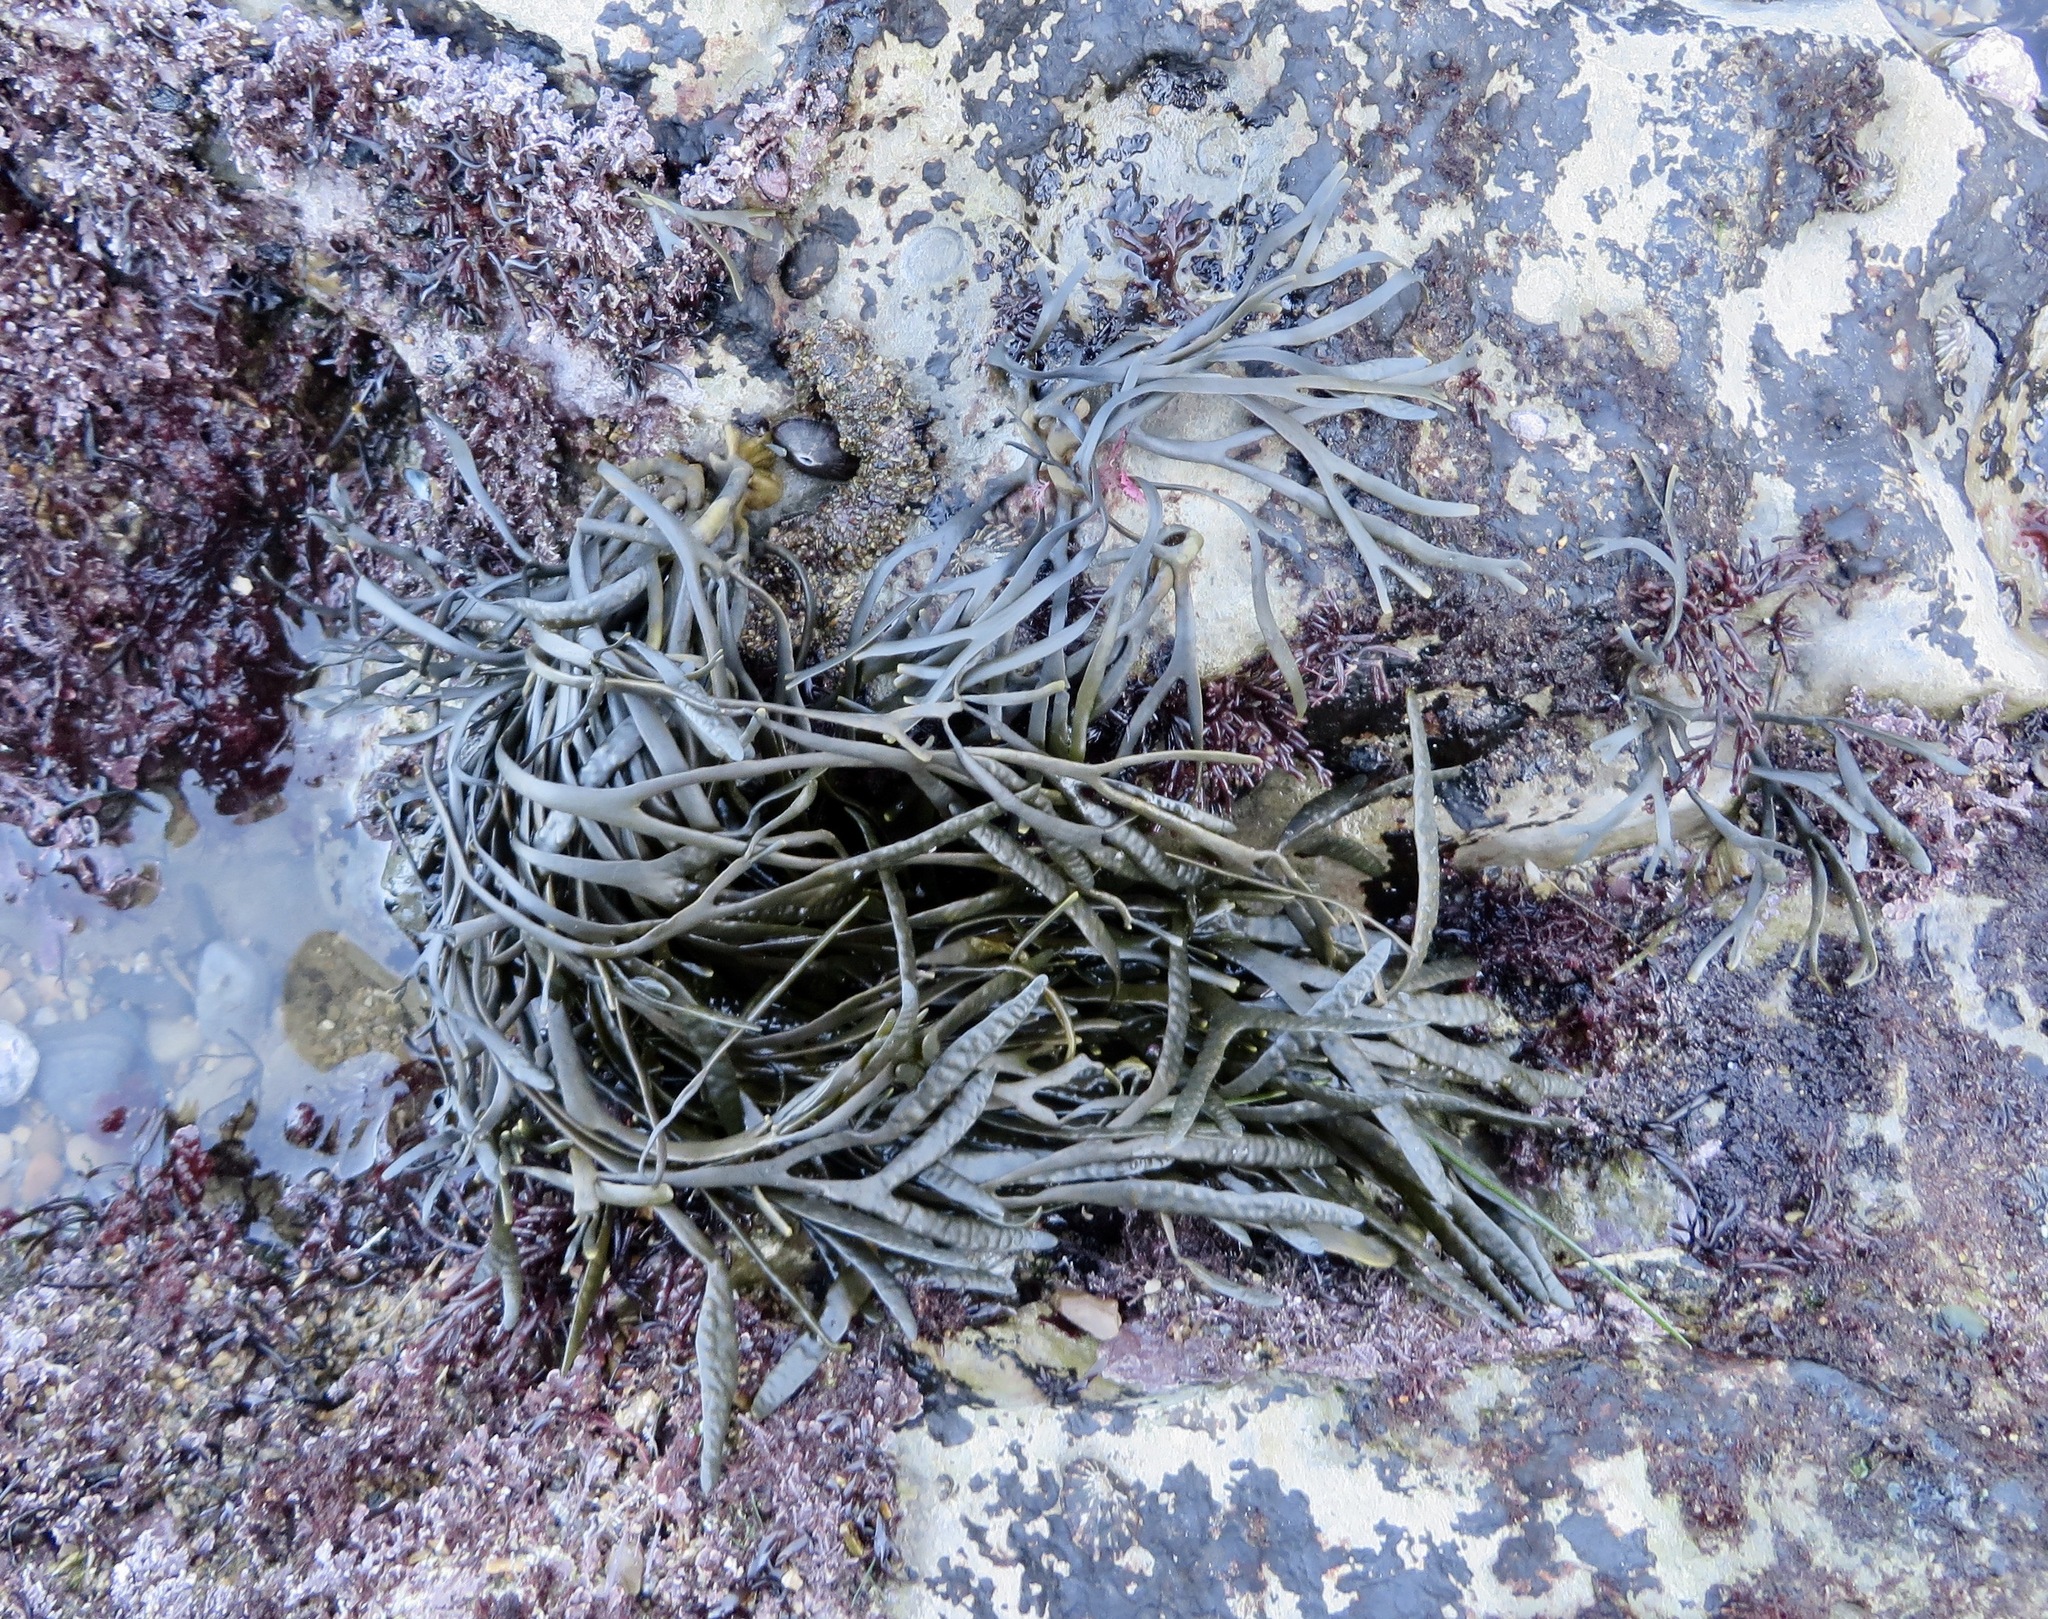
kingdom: Chromista
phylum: Ochrophyta
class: Phaeophyceae
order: Fucales
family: Fucaceae
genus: Silvetia
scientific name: Silvetia
